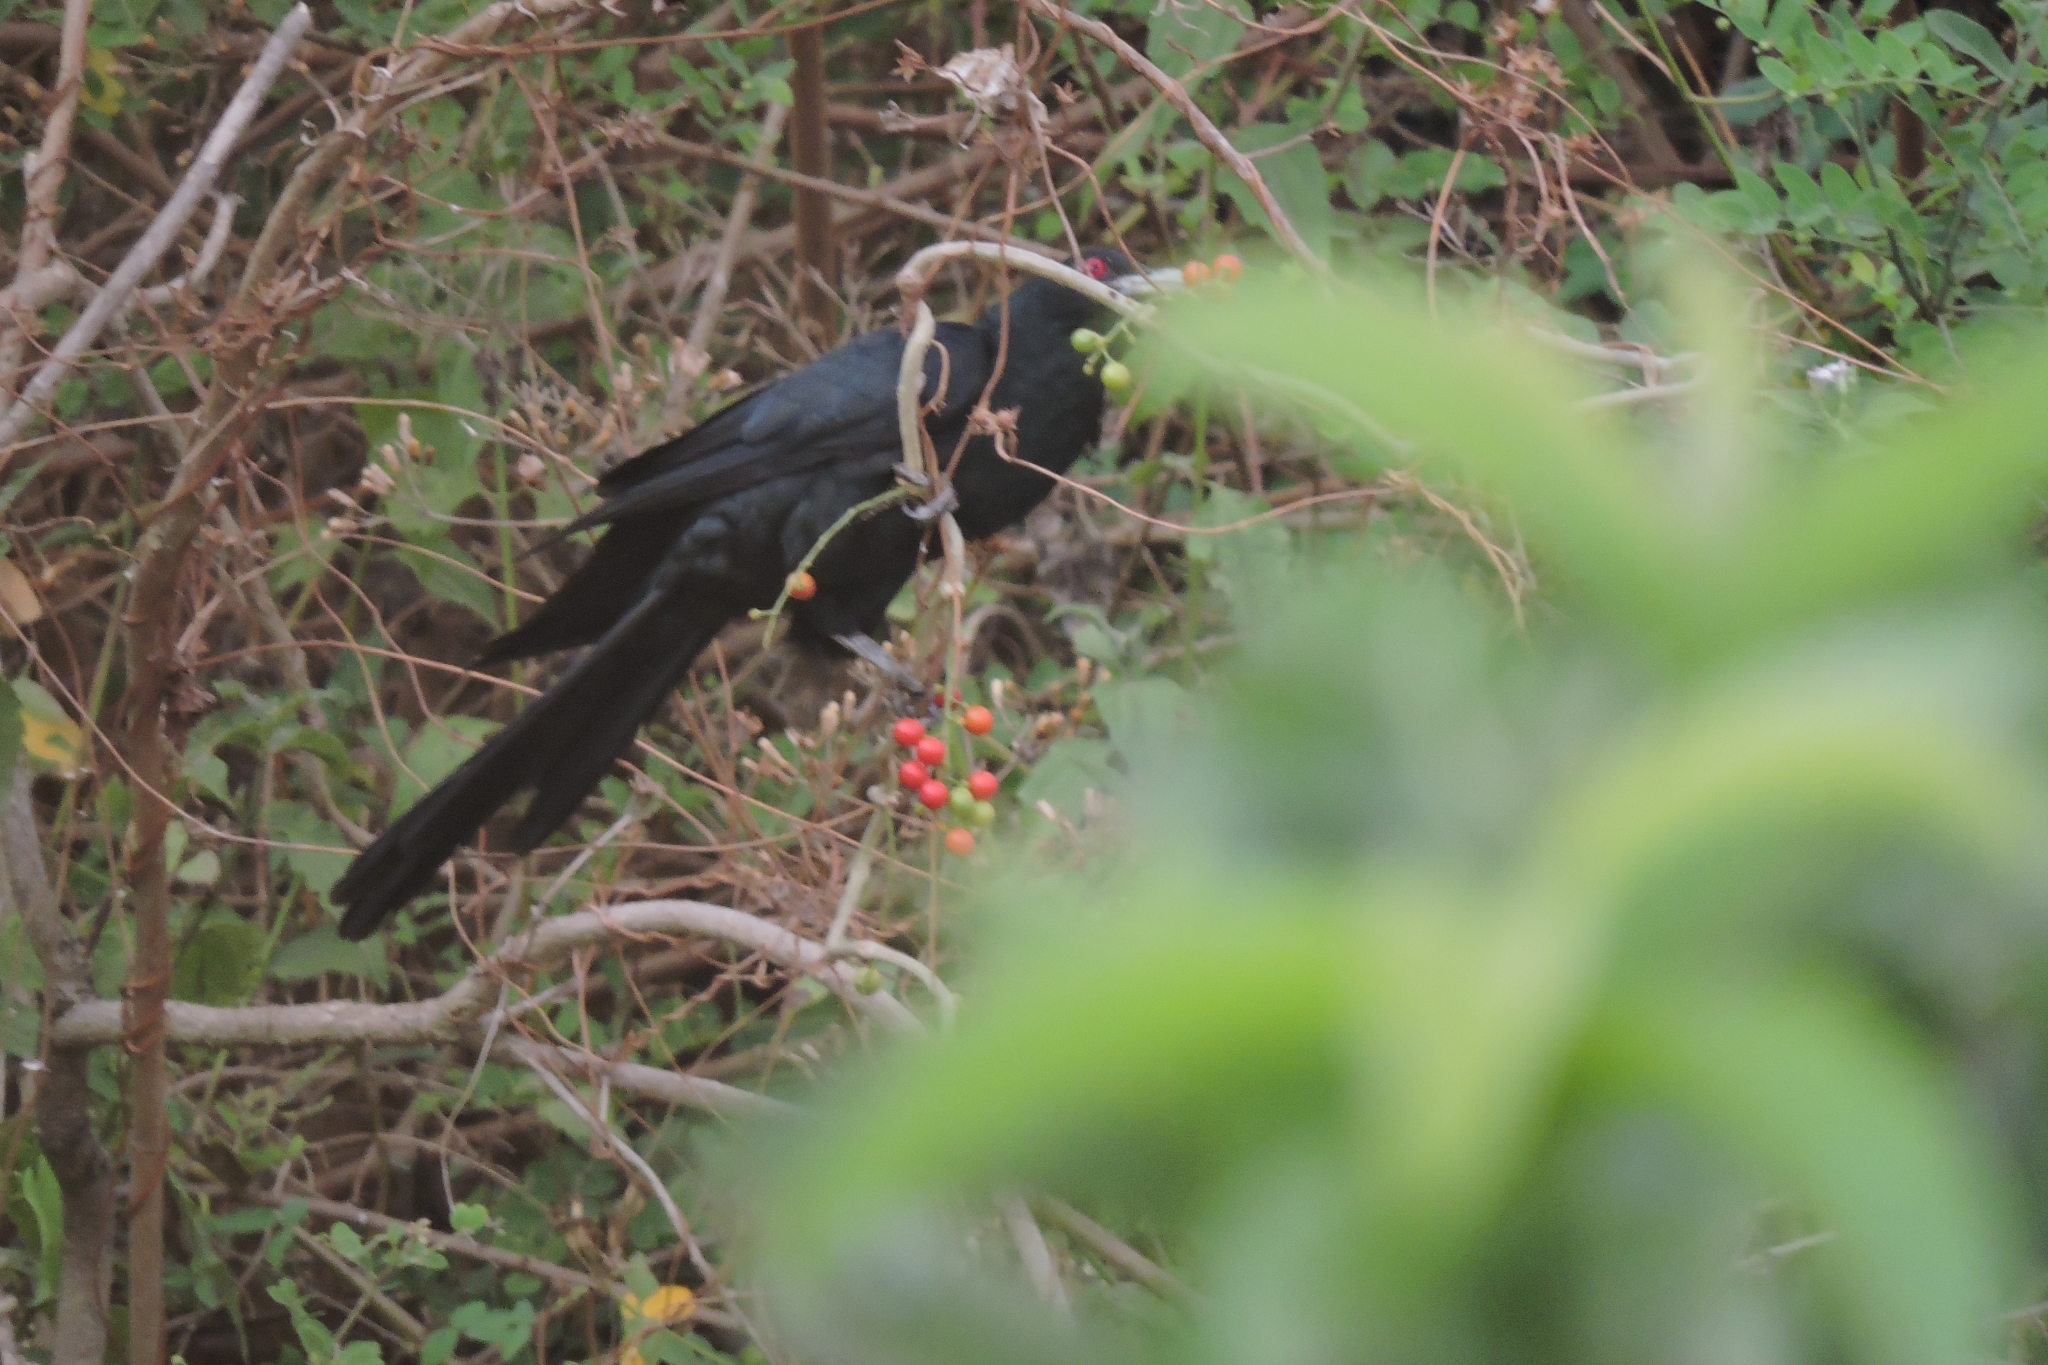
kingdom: Animalia
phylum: Chordata
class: Aves
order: Cuculiformes
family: Cuculidae
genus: Eudynamys
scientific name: Eudynamys scolopaceus
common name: Asian koel
